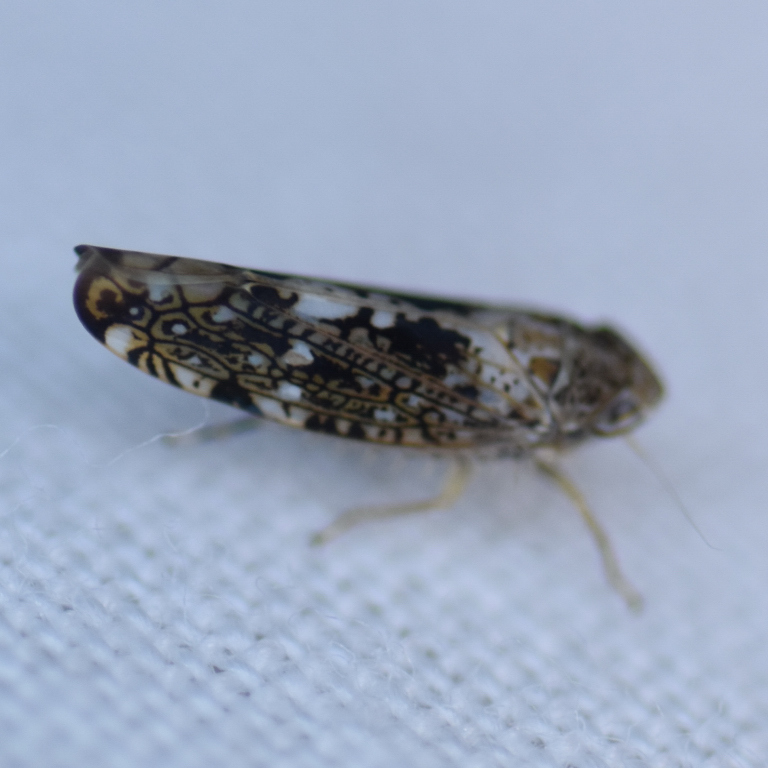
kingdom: Animalia
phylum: Arthropoda
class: Insecta
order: Hemiptera
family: Cicadellidae
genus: Prescottia
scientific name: Prescottia lobata
